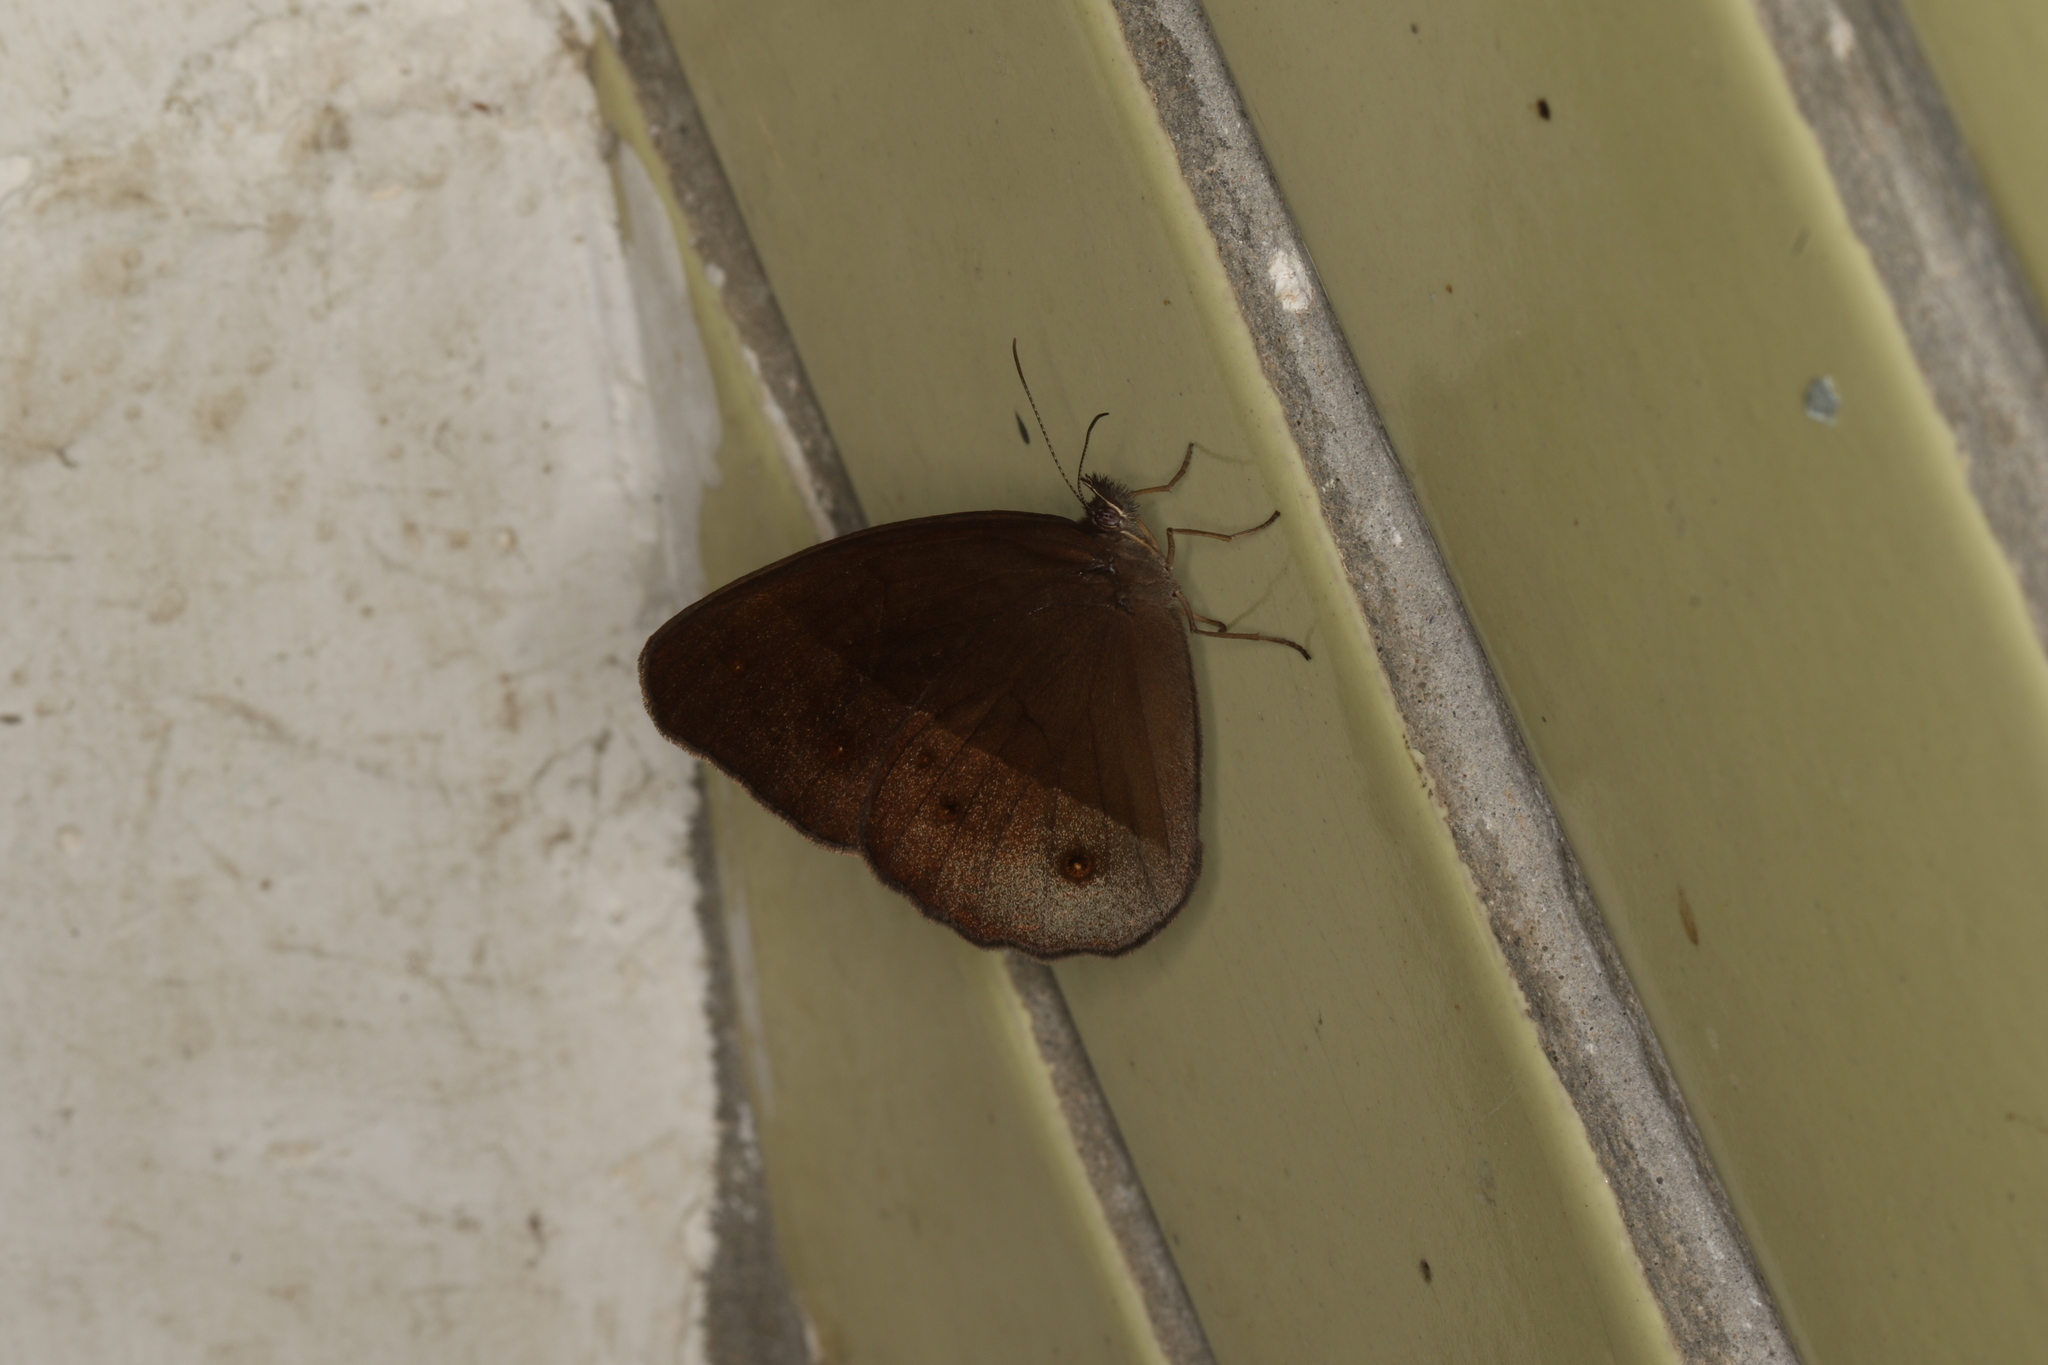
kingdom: Animalia
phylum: Arthropoda
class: Insecta
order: Lepidoptera
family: Nymphalidae
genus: Orsotriaena
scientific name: Orsotriaena medus
